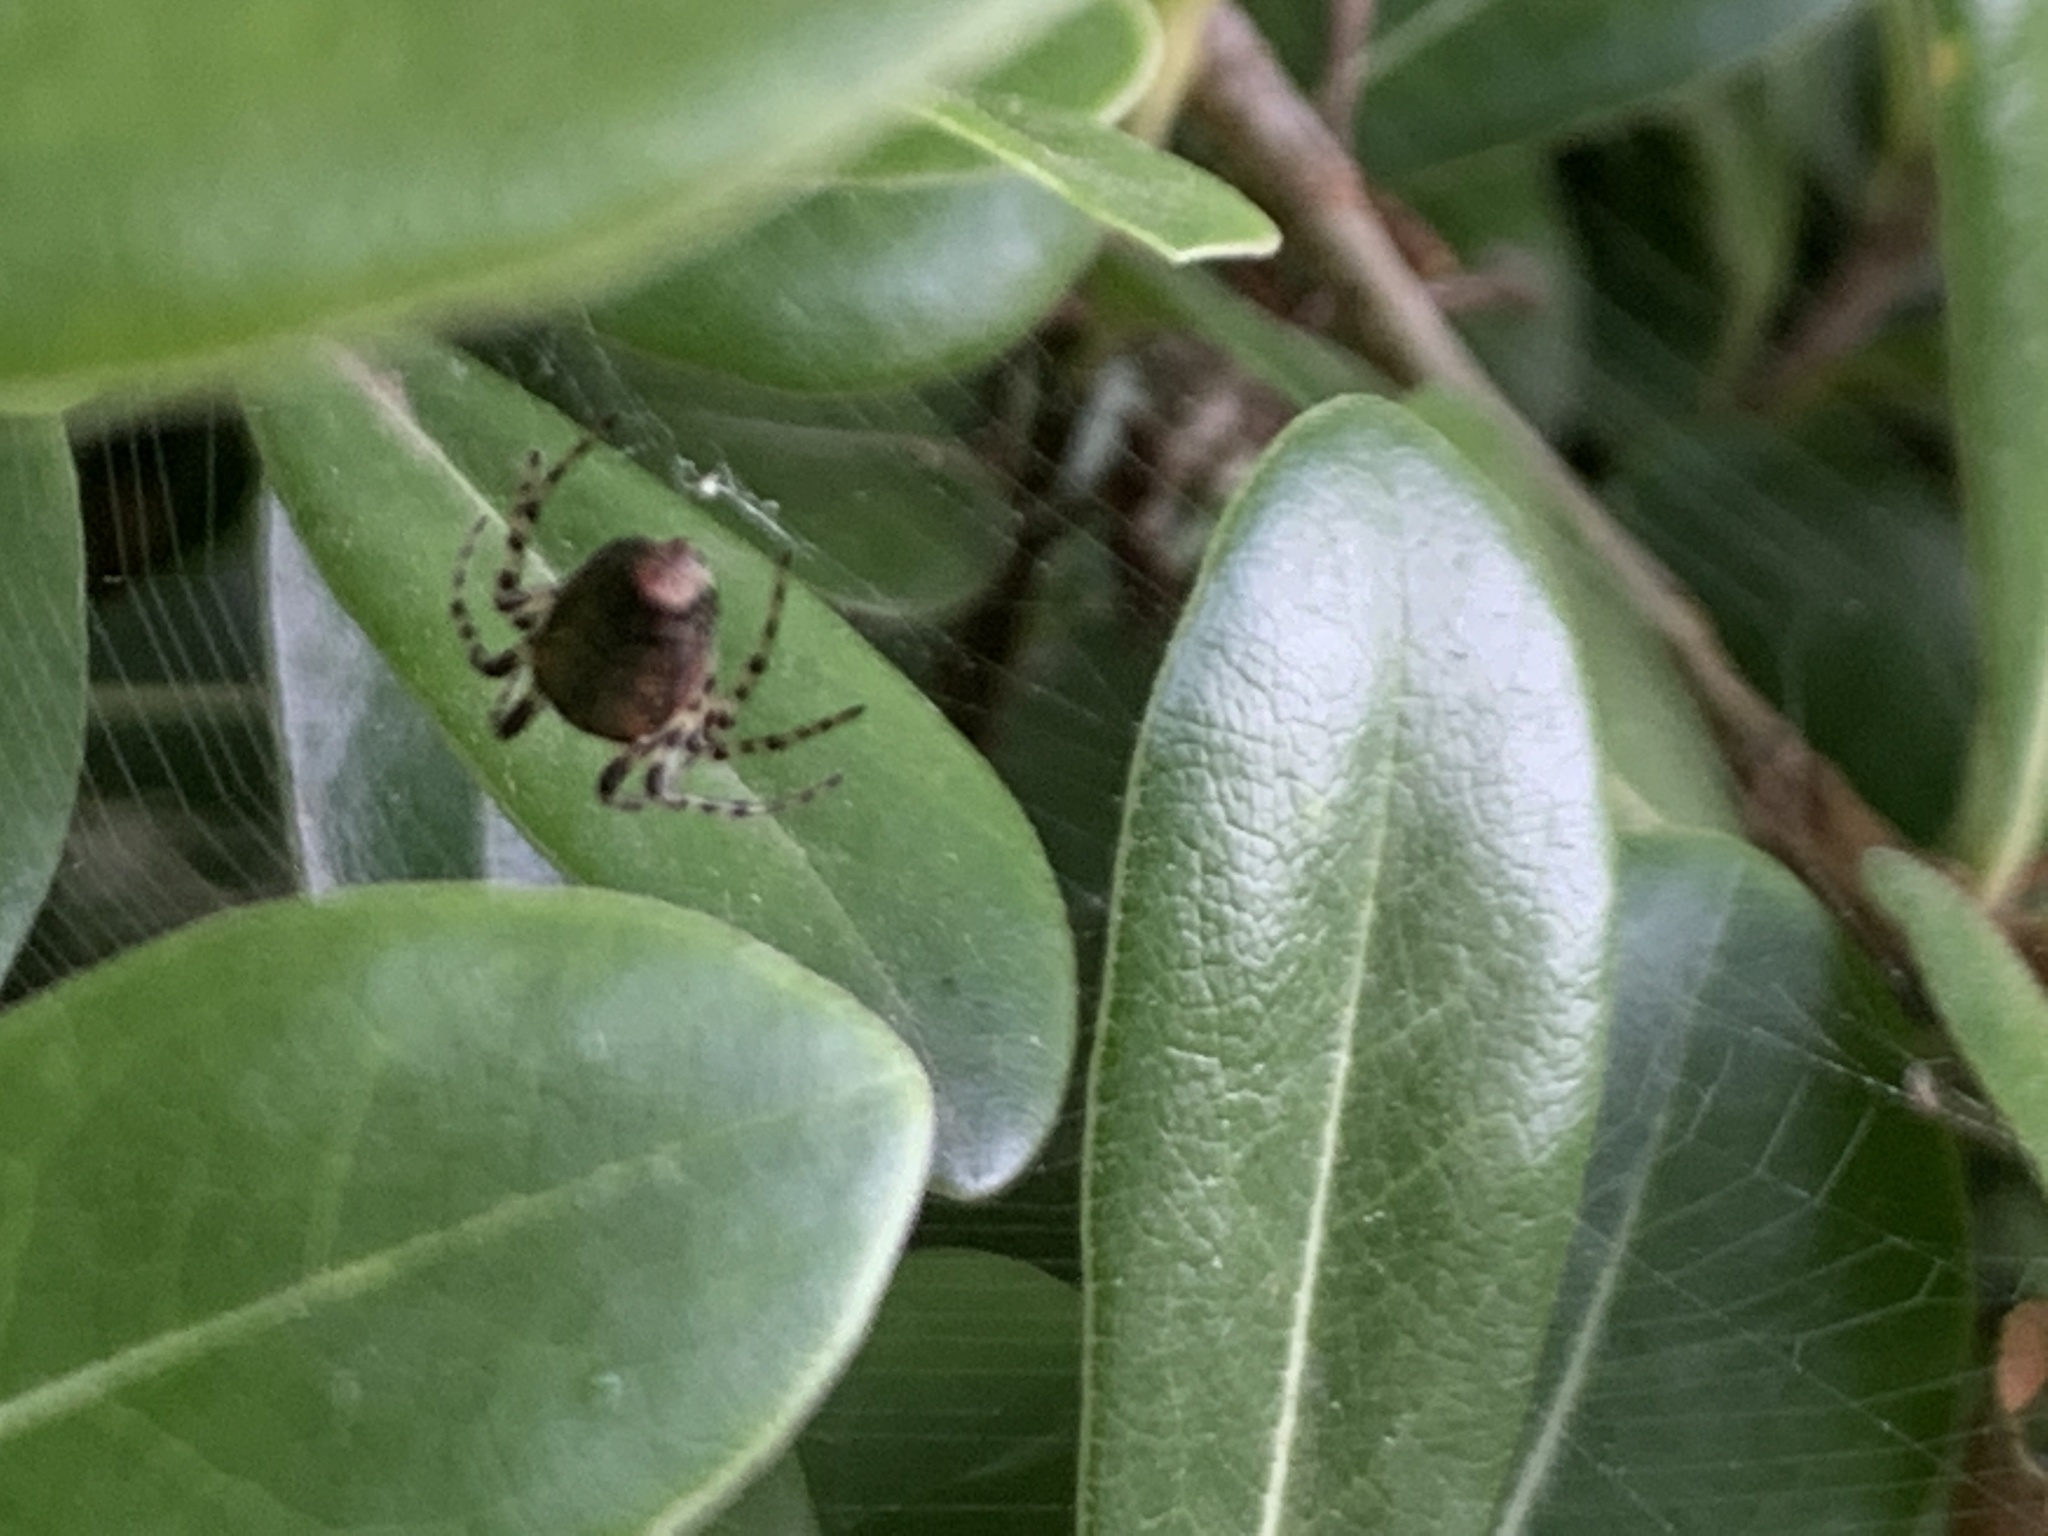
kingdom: Animalia
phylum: Arthropoda
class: Arachnida
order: Araneae
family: Araneidae
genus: Alpaida
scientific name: Alpaida gallardoi
